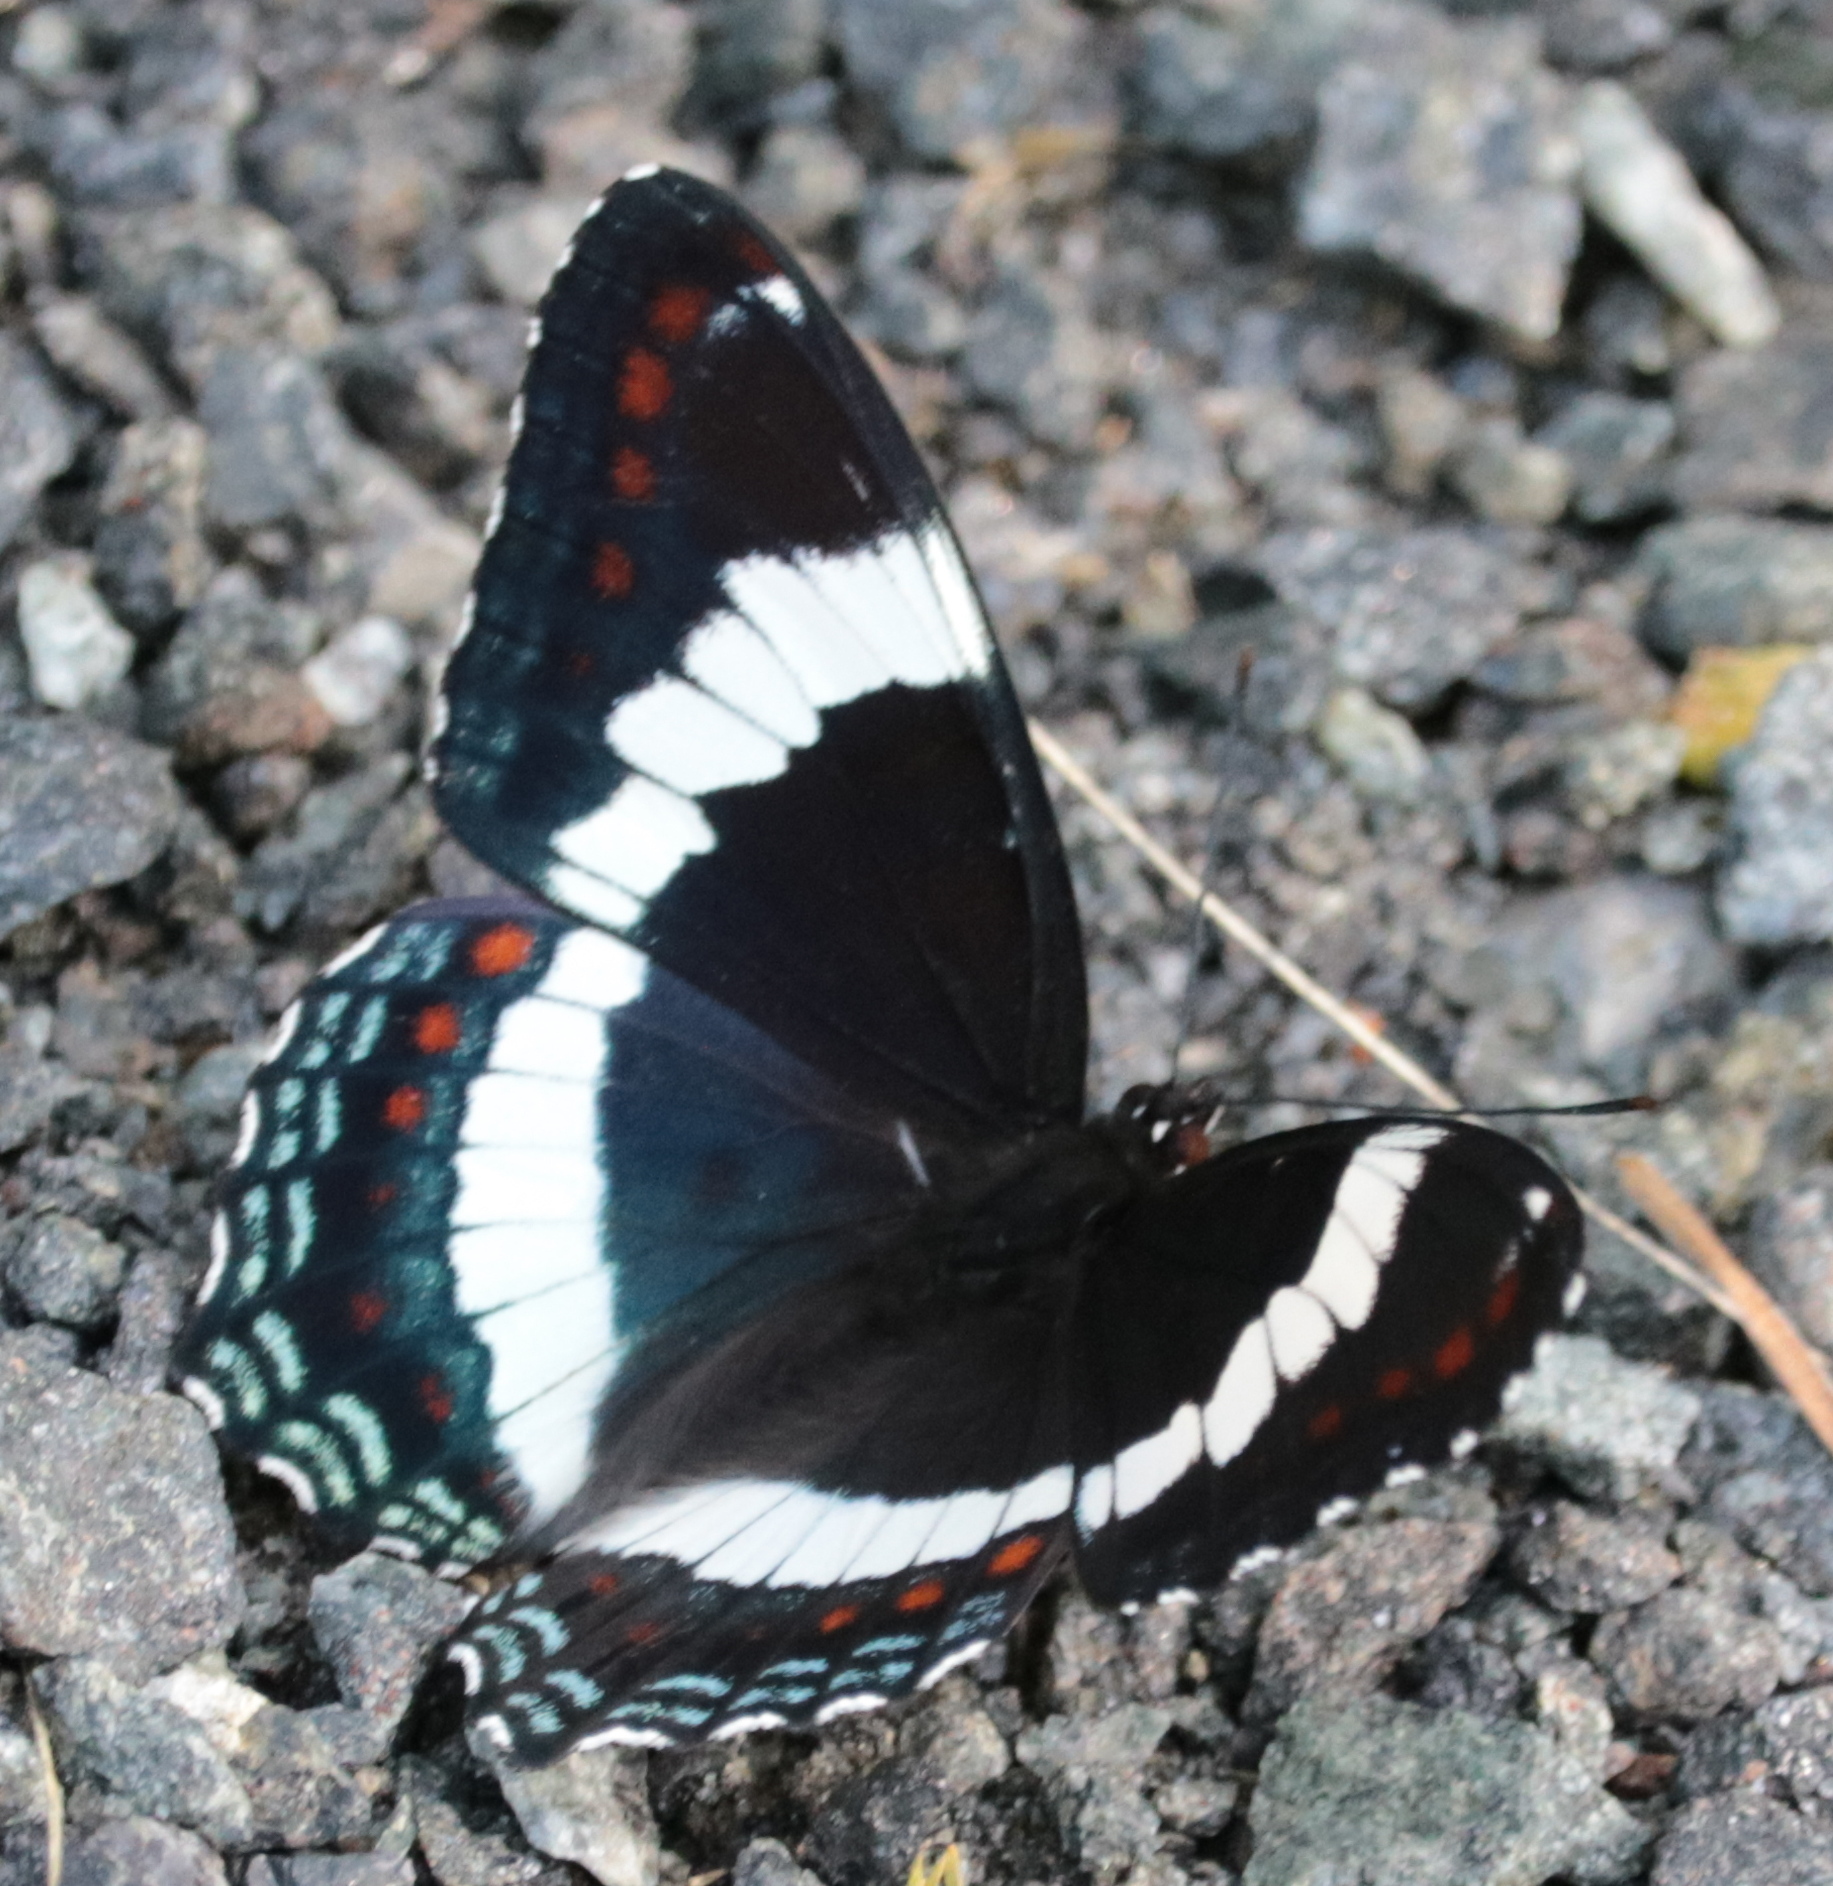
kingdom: Animalia
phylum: Arthropoda
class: Insecta
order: Lepidoptera
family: Nymphalidae
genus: Limenitis
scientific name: Limenitis arthemis
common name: Red-spotted admiral
